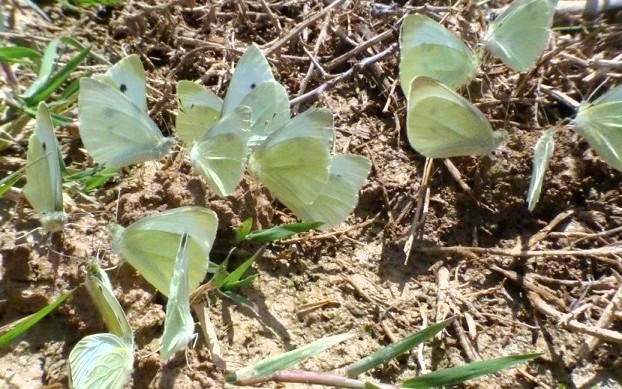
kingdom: Animalia
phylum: Arthropoda
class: Insecta
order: Lepidoptera
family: Pieridae
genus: Pieris
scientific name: Pieris rapae
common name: Small white
